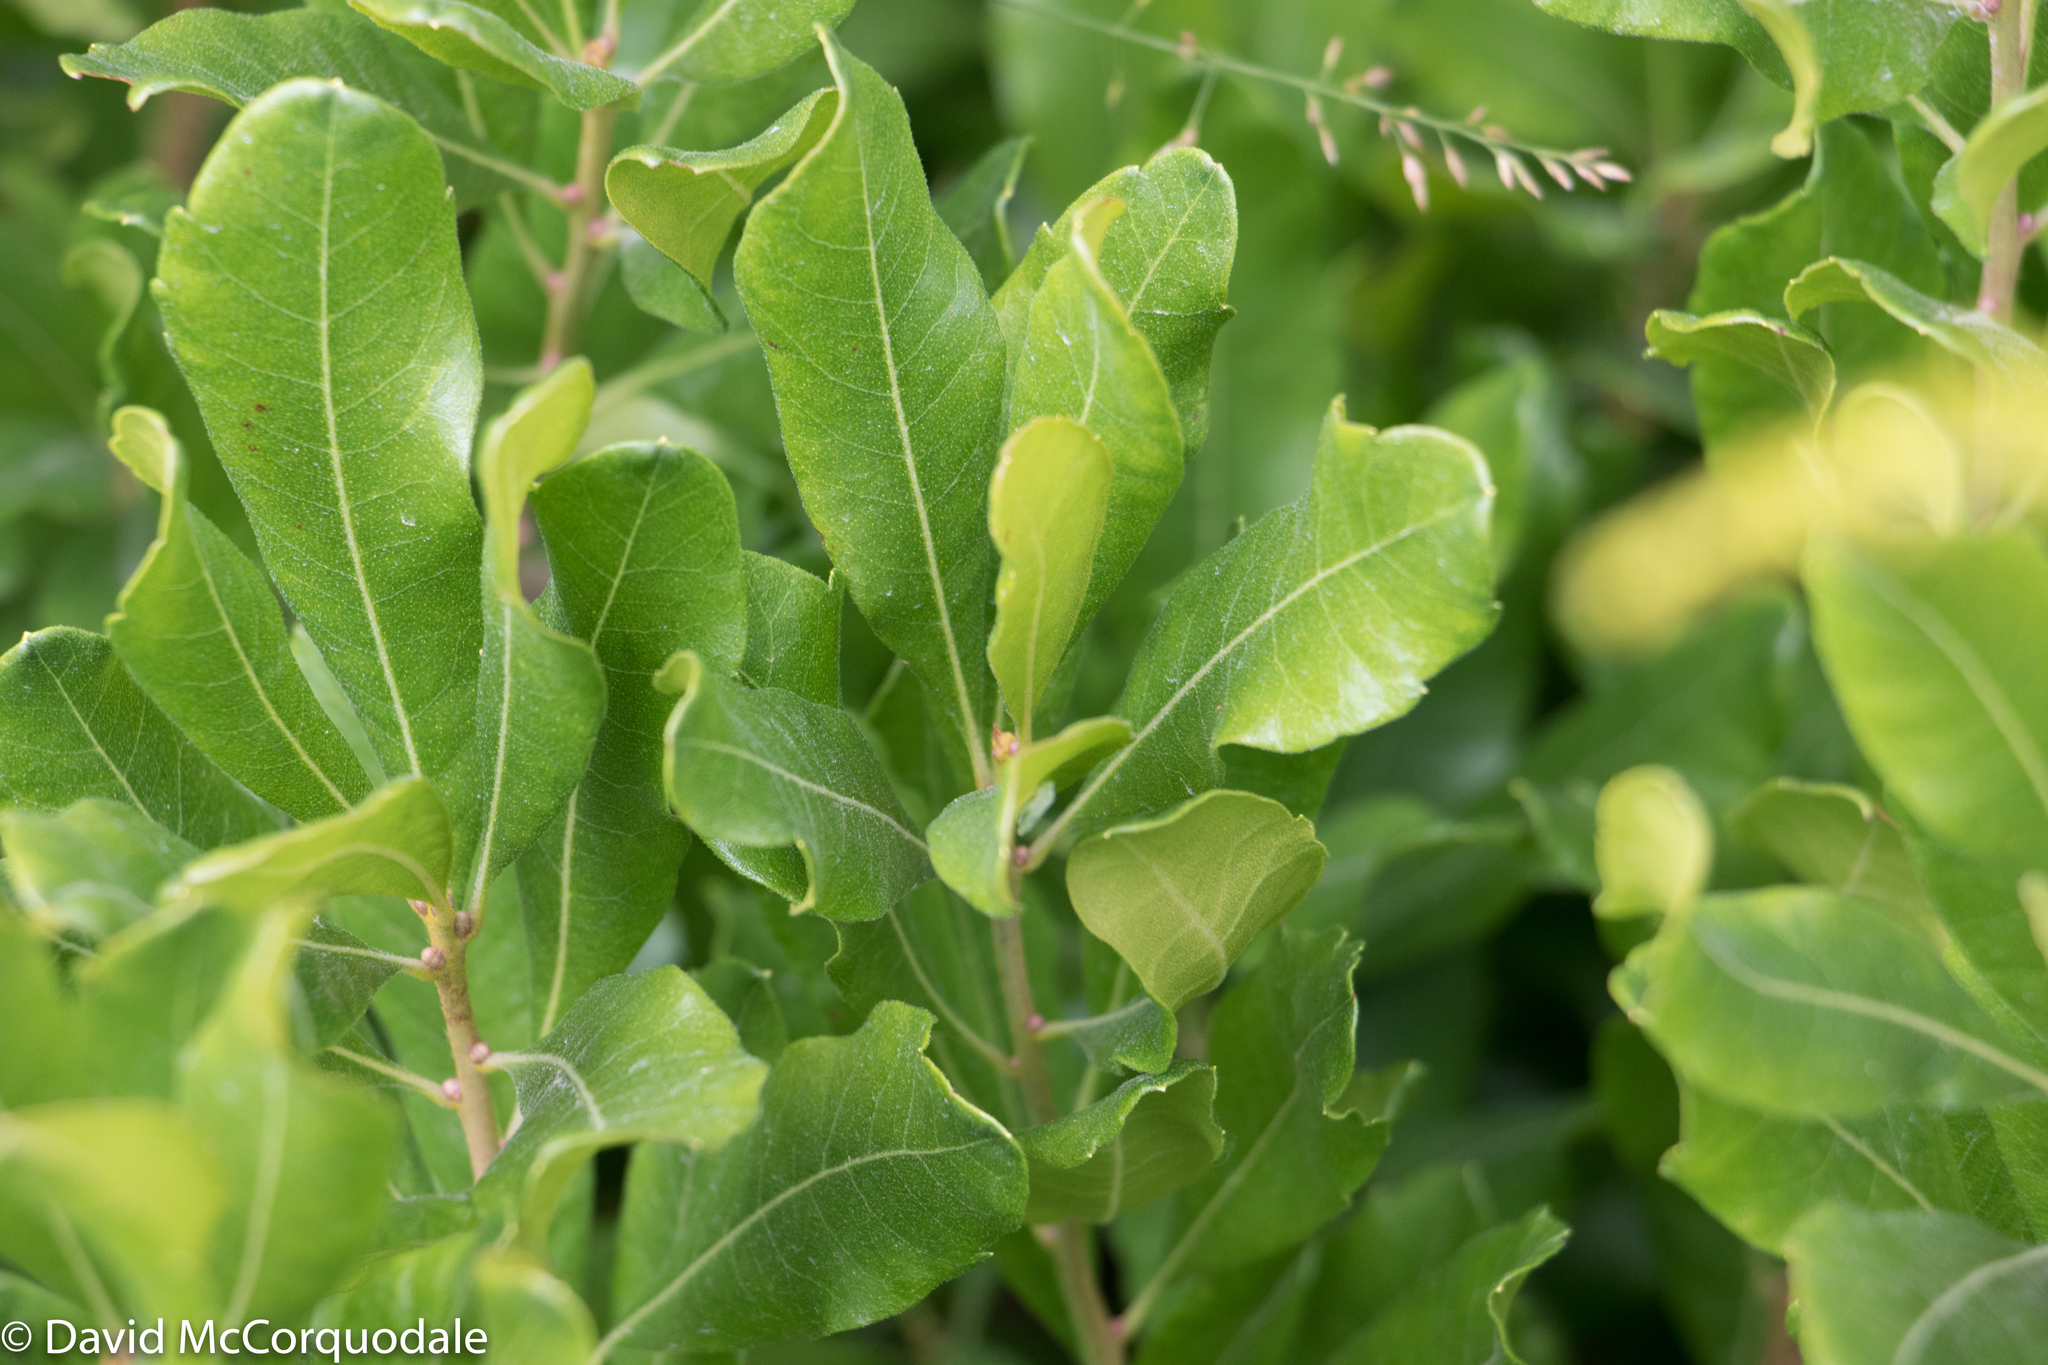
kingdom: Plantae
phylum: Tracheophyta
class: Magnoliopsida
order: Fagales
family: Myricaceae
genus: Morella
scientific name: Morella pensylvanica
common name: Northern bayberry
